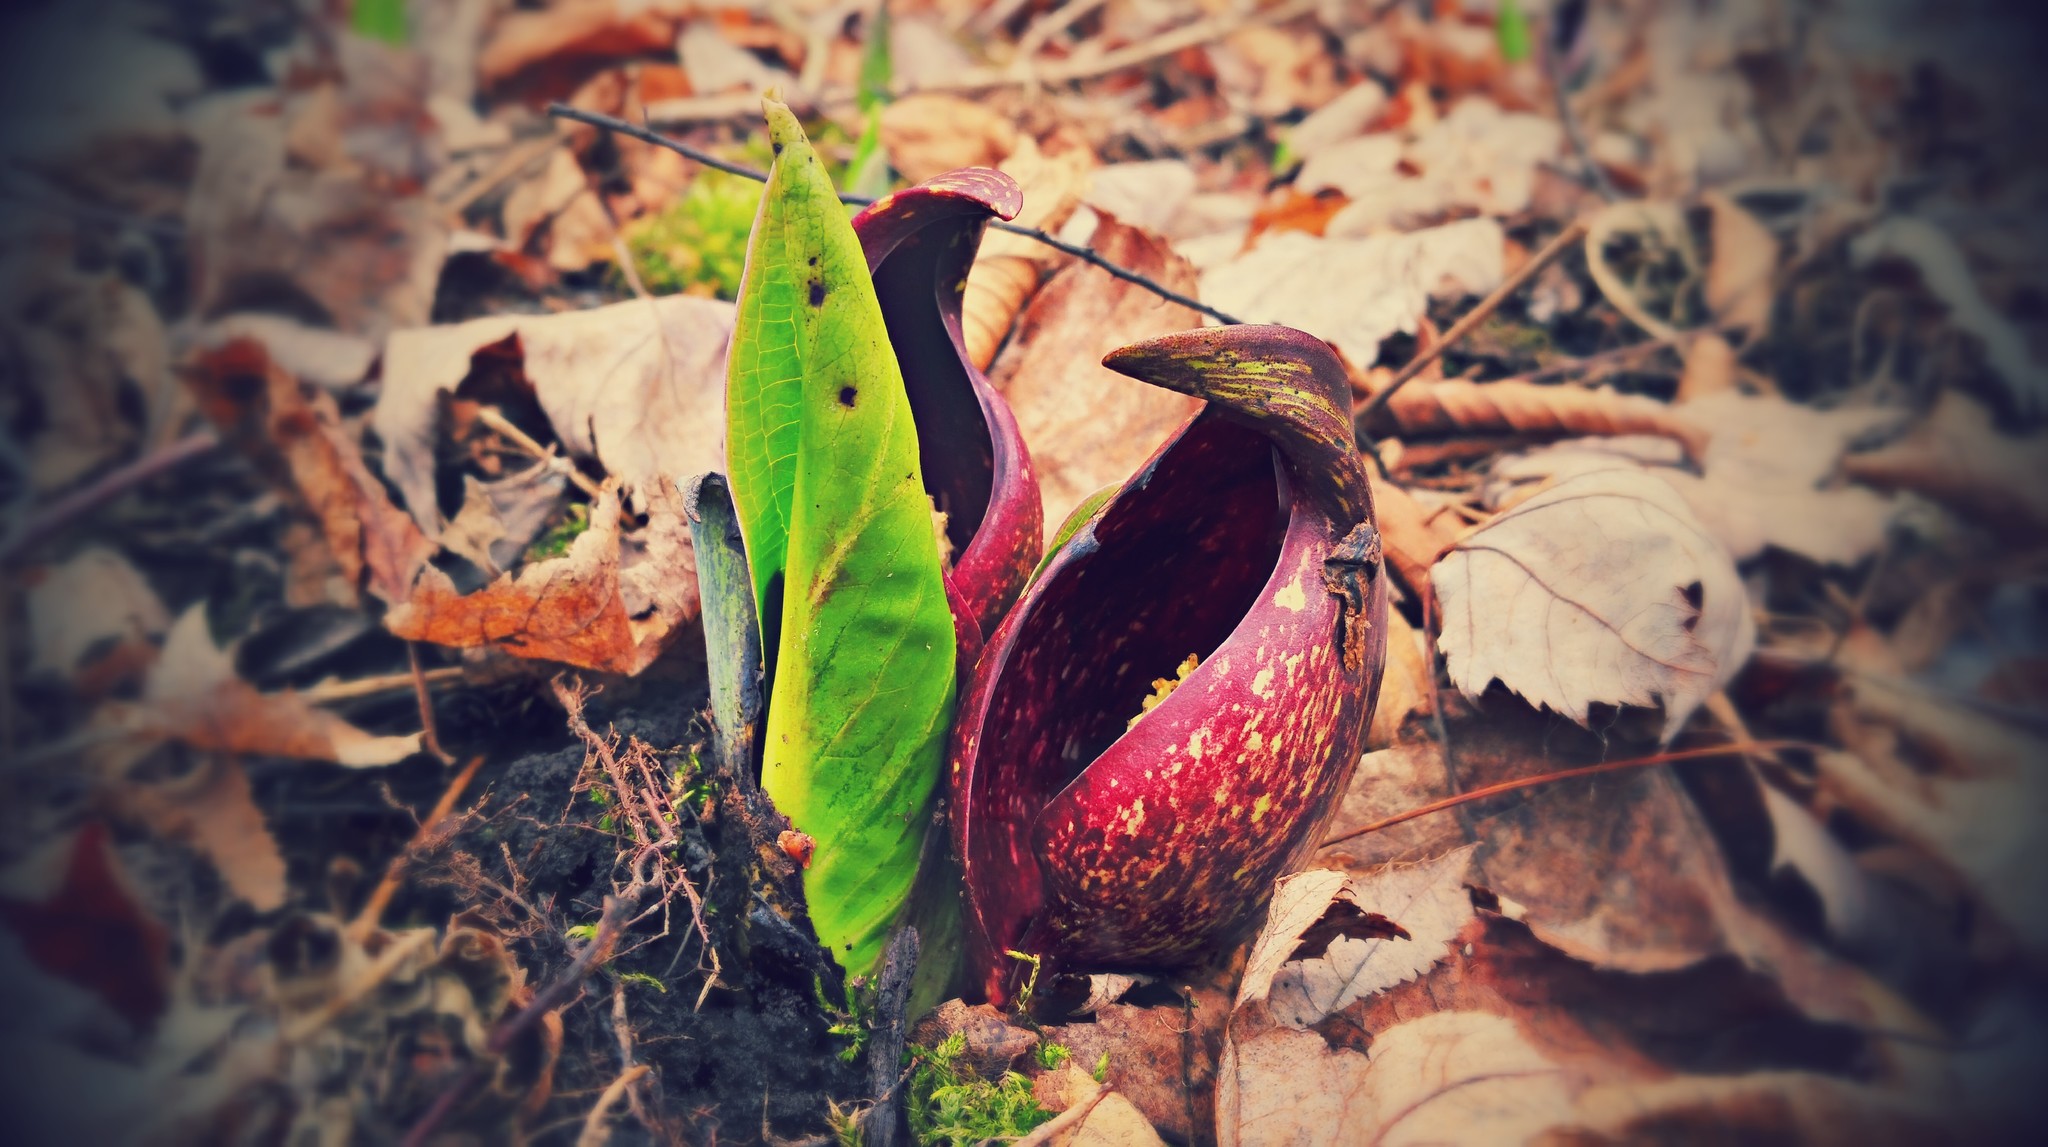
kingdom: Plantae
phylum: Tracheophyta
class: Liliopsida
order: Alismatales
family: Araceae
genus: Symplocarpus
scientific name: Symplocarpus foetidus
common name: Eastern skunk cabbage
